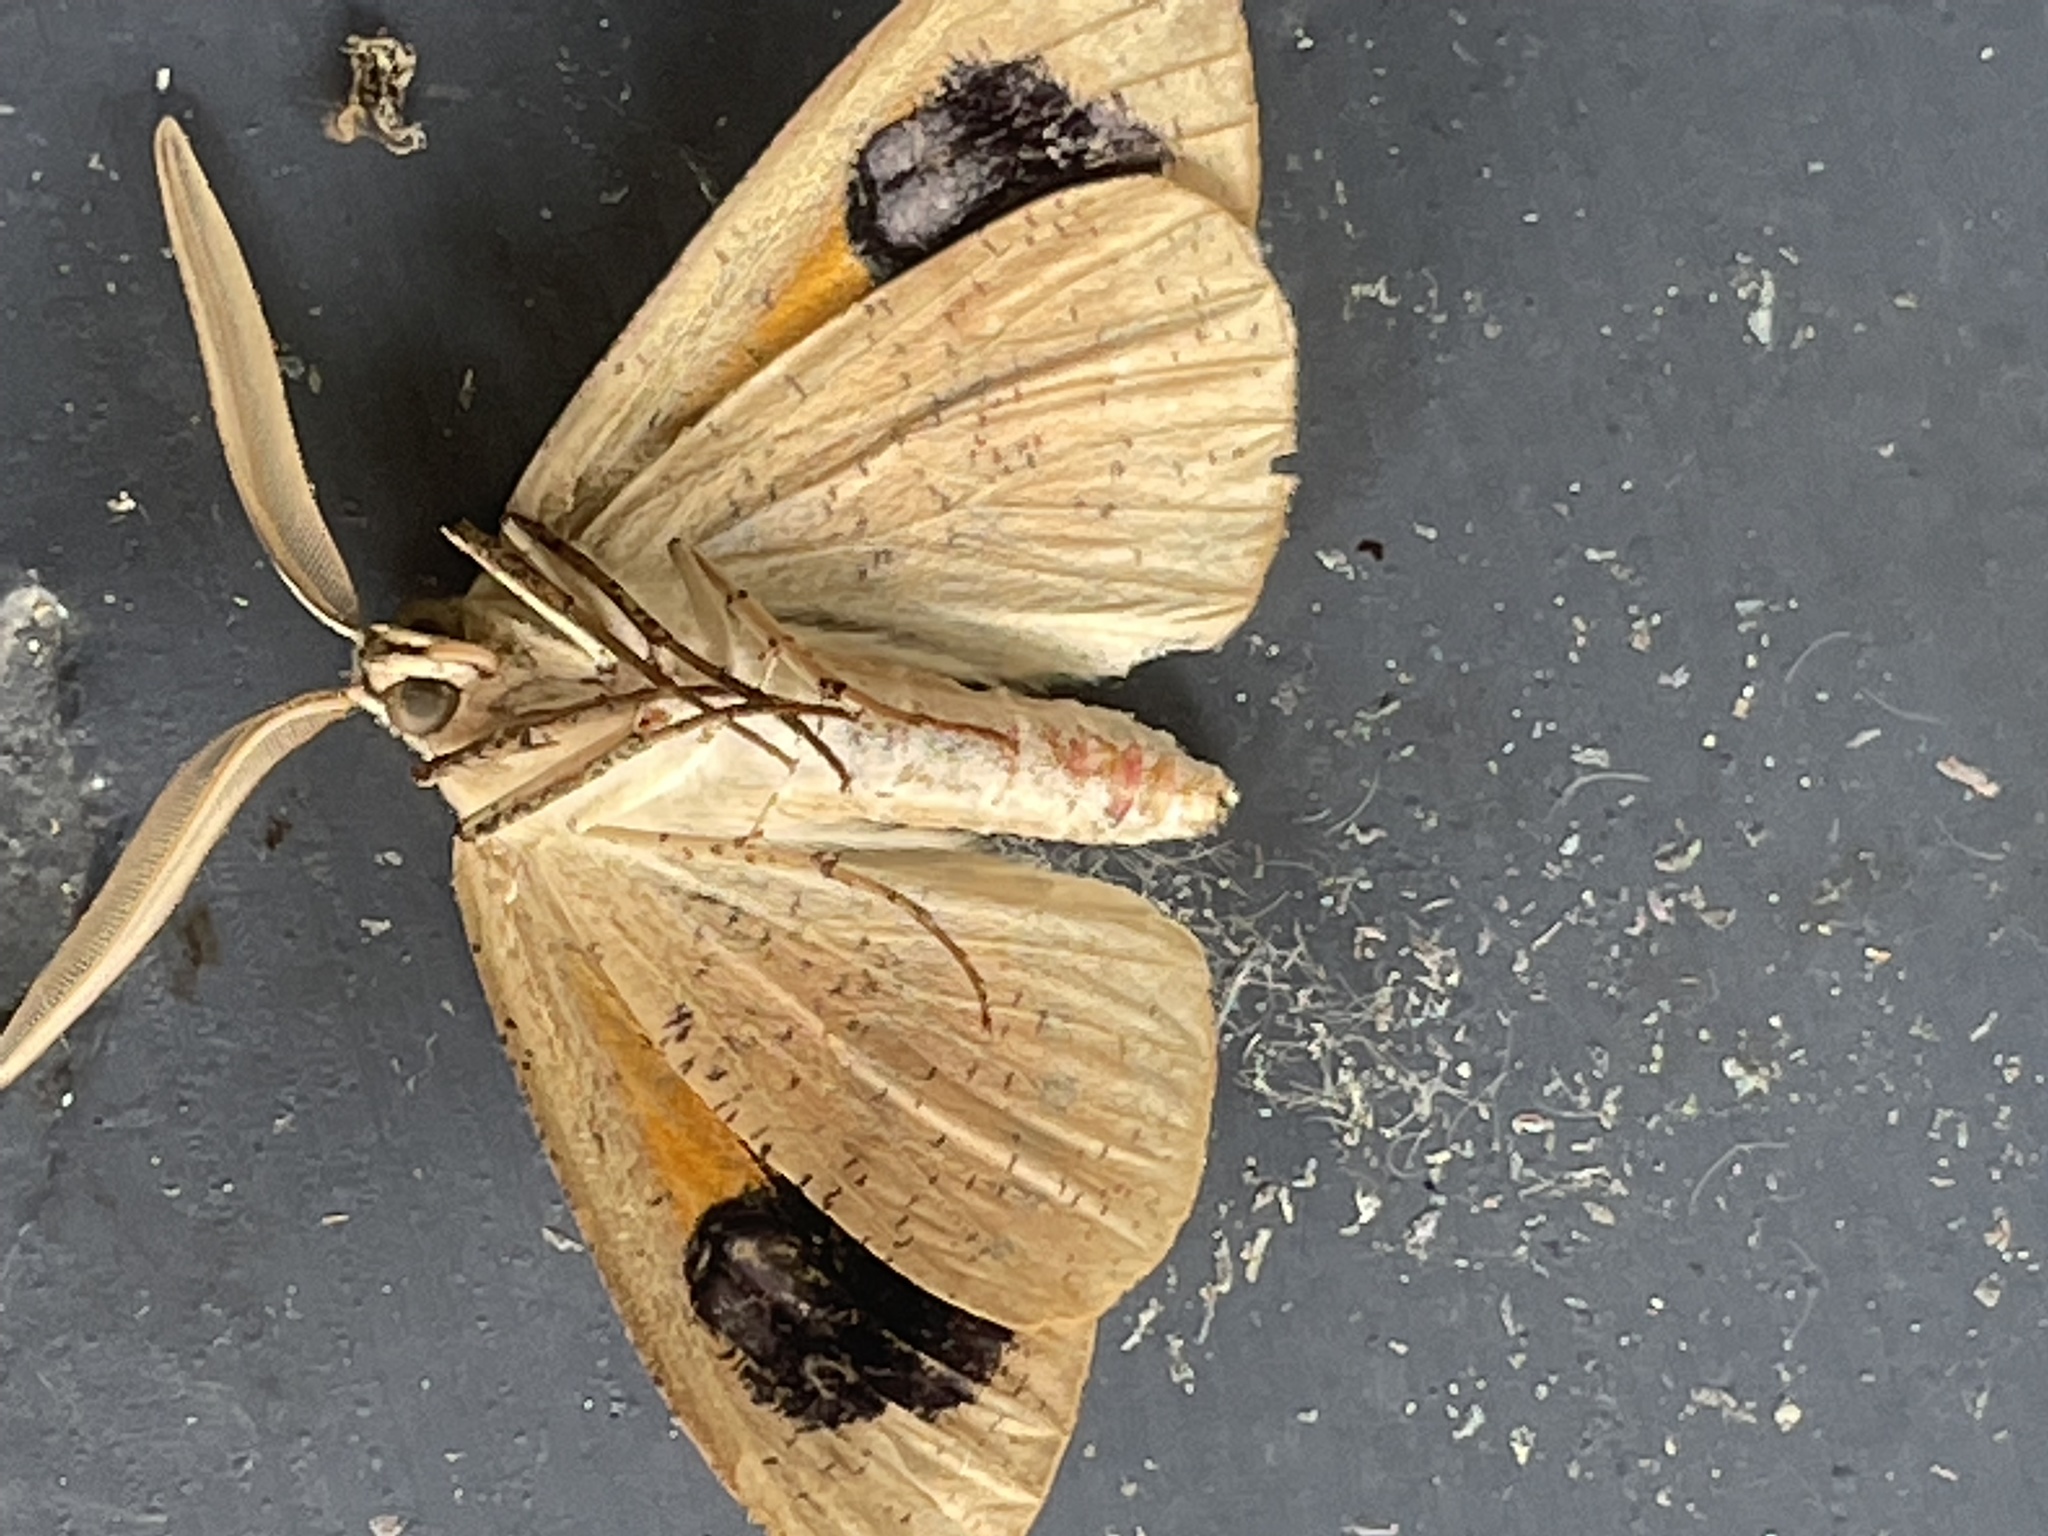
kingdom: Animalia
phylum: Arthropoda
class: Insecta
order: Lepidoptera
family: Geometridae
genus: Gastrophora
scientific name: Gastrophora henricaria
